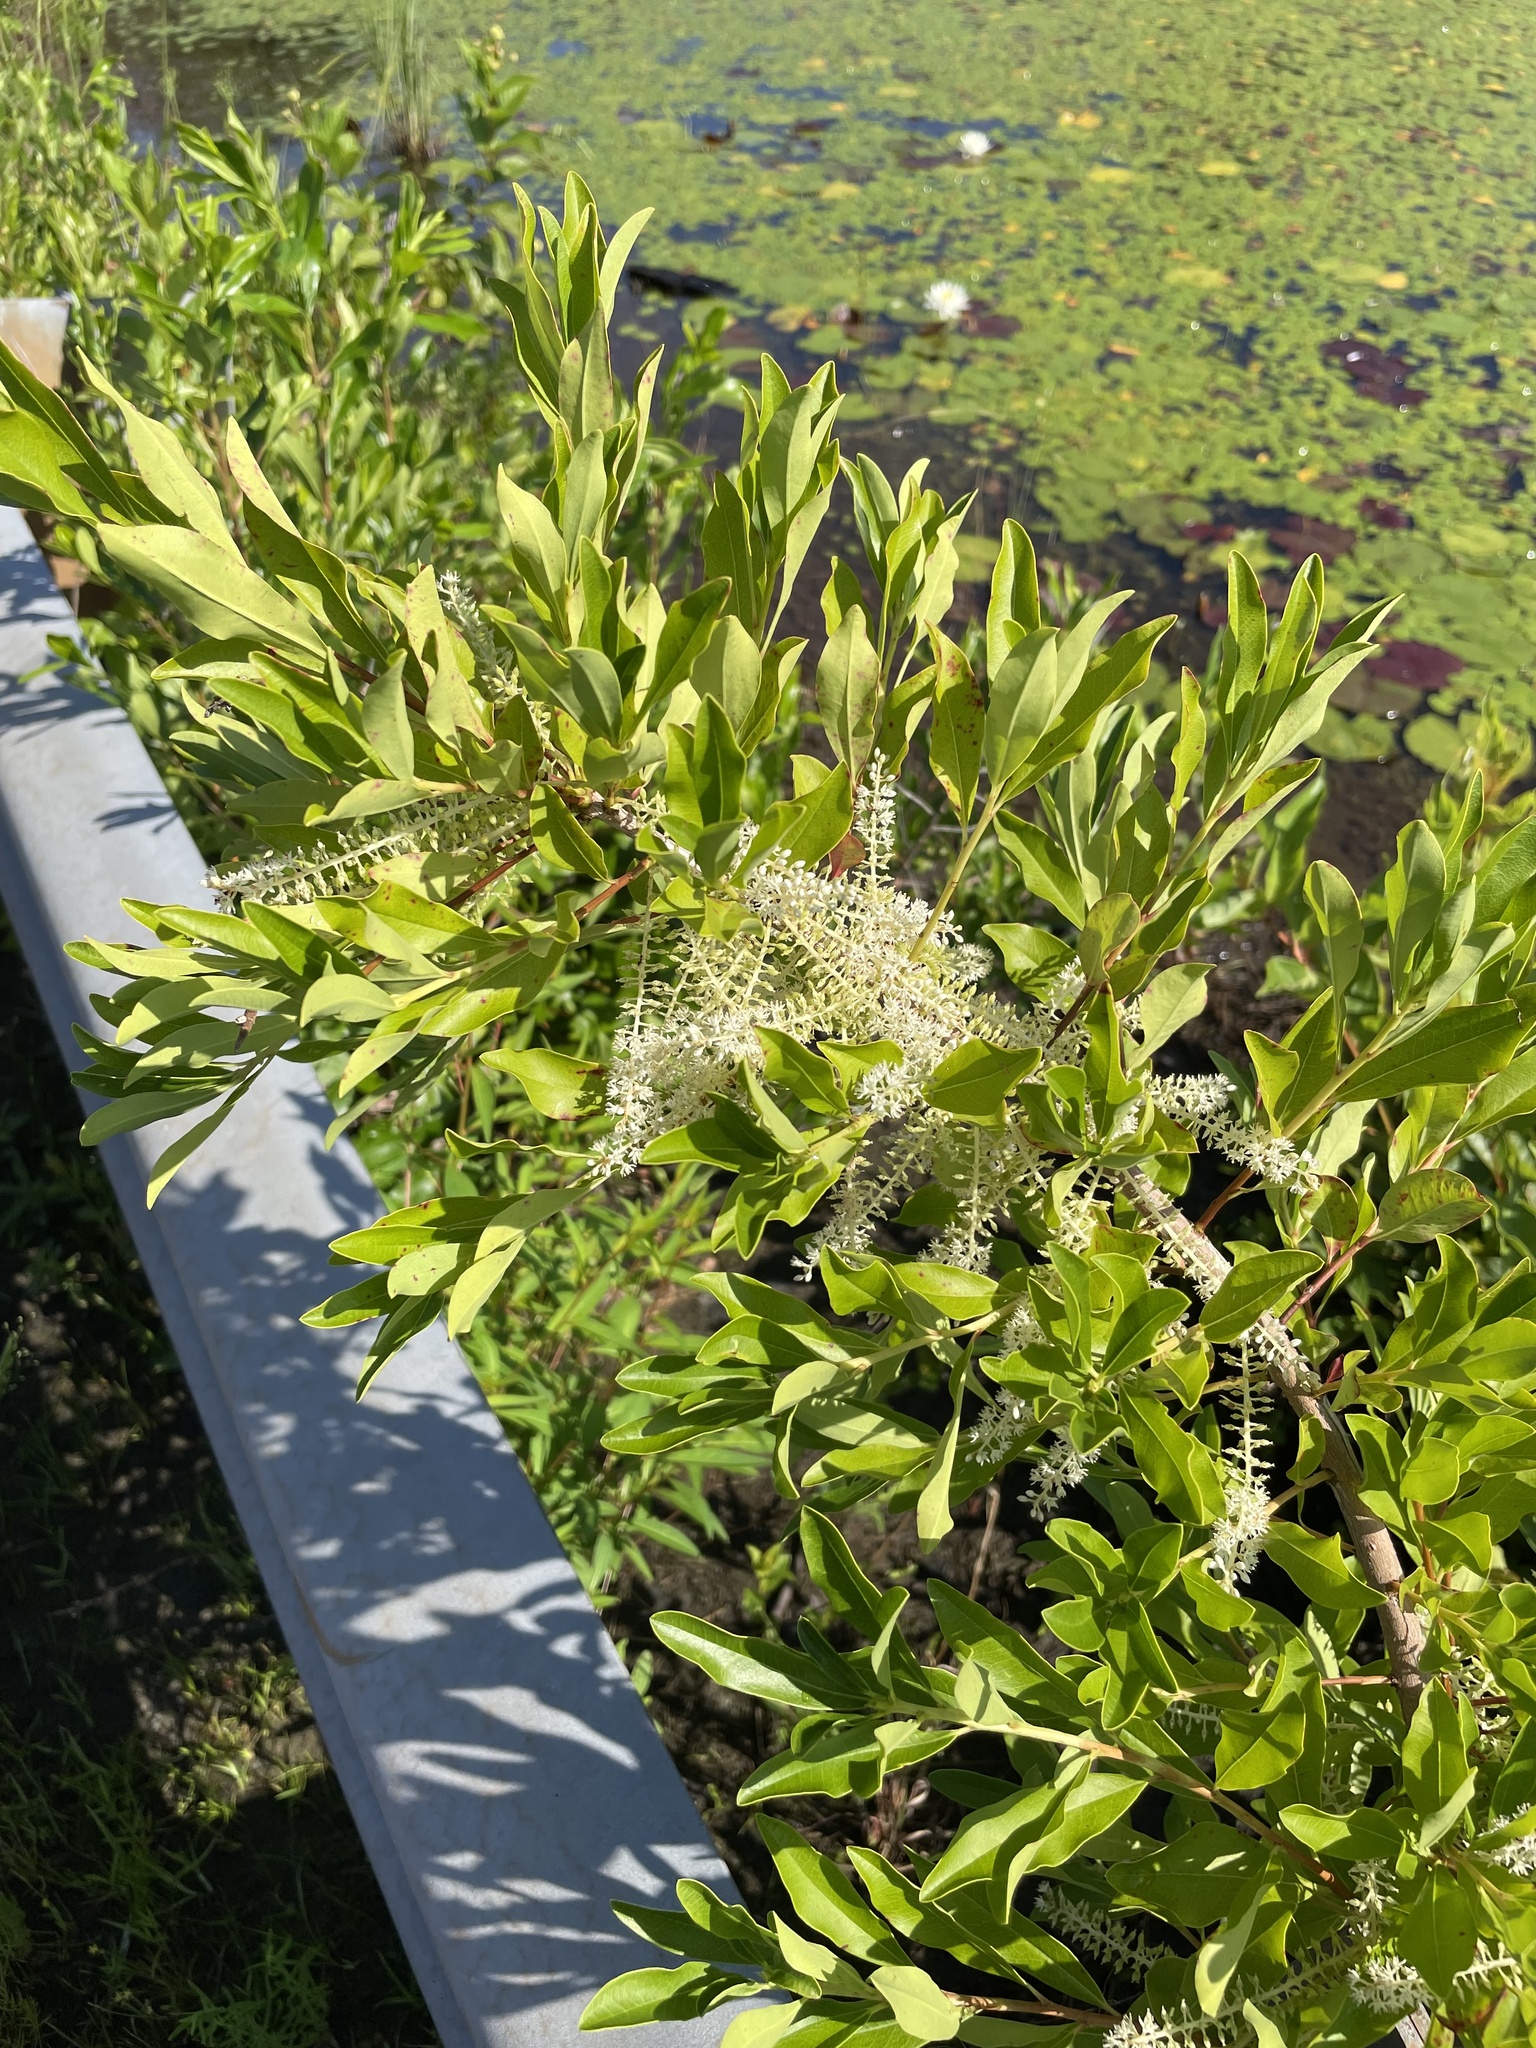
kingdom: Plantae
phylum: Tracheophyta
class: Magnoliopsida
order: Ericales
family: Cyrillaceae
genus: Cyrilla
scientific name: Cyrilla racemiflora
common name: Black titi
